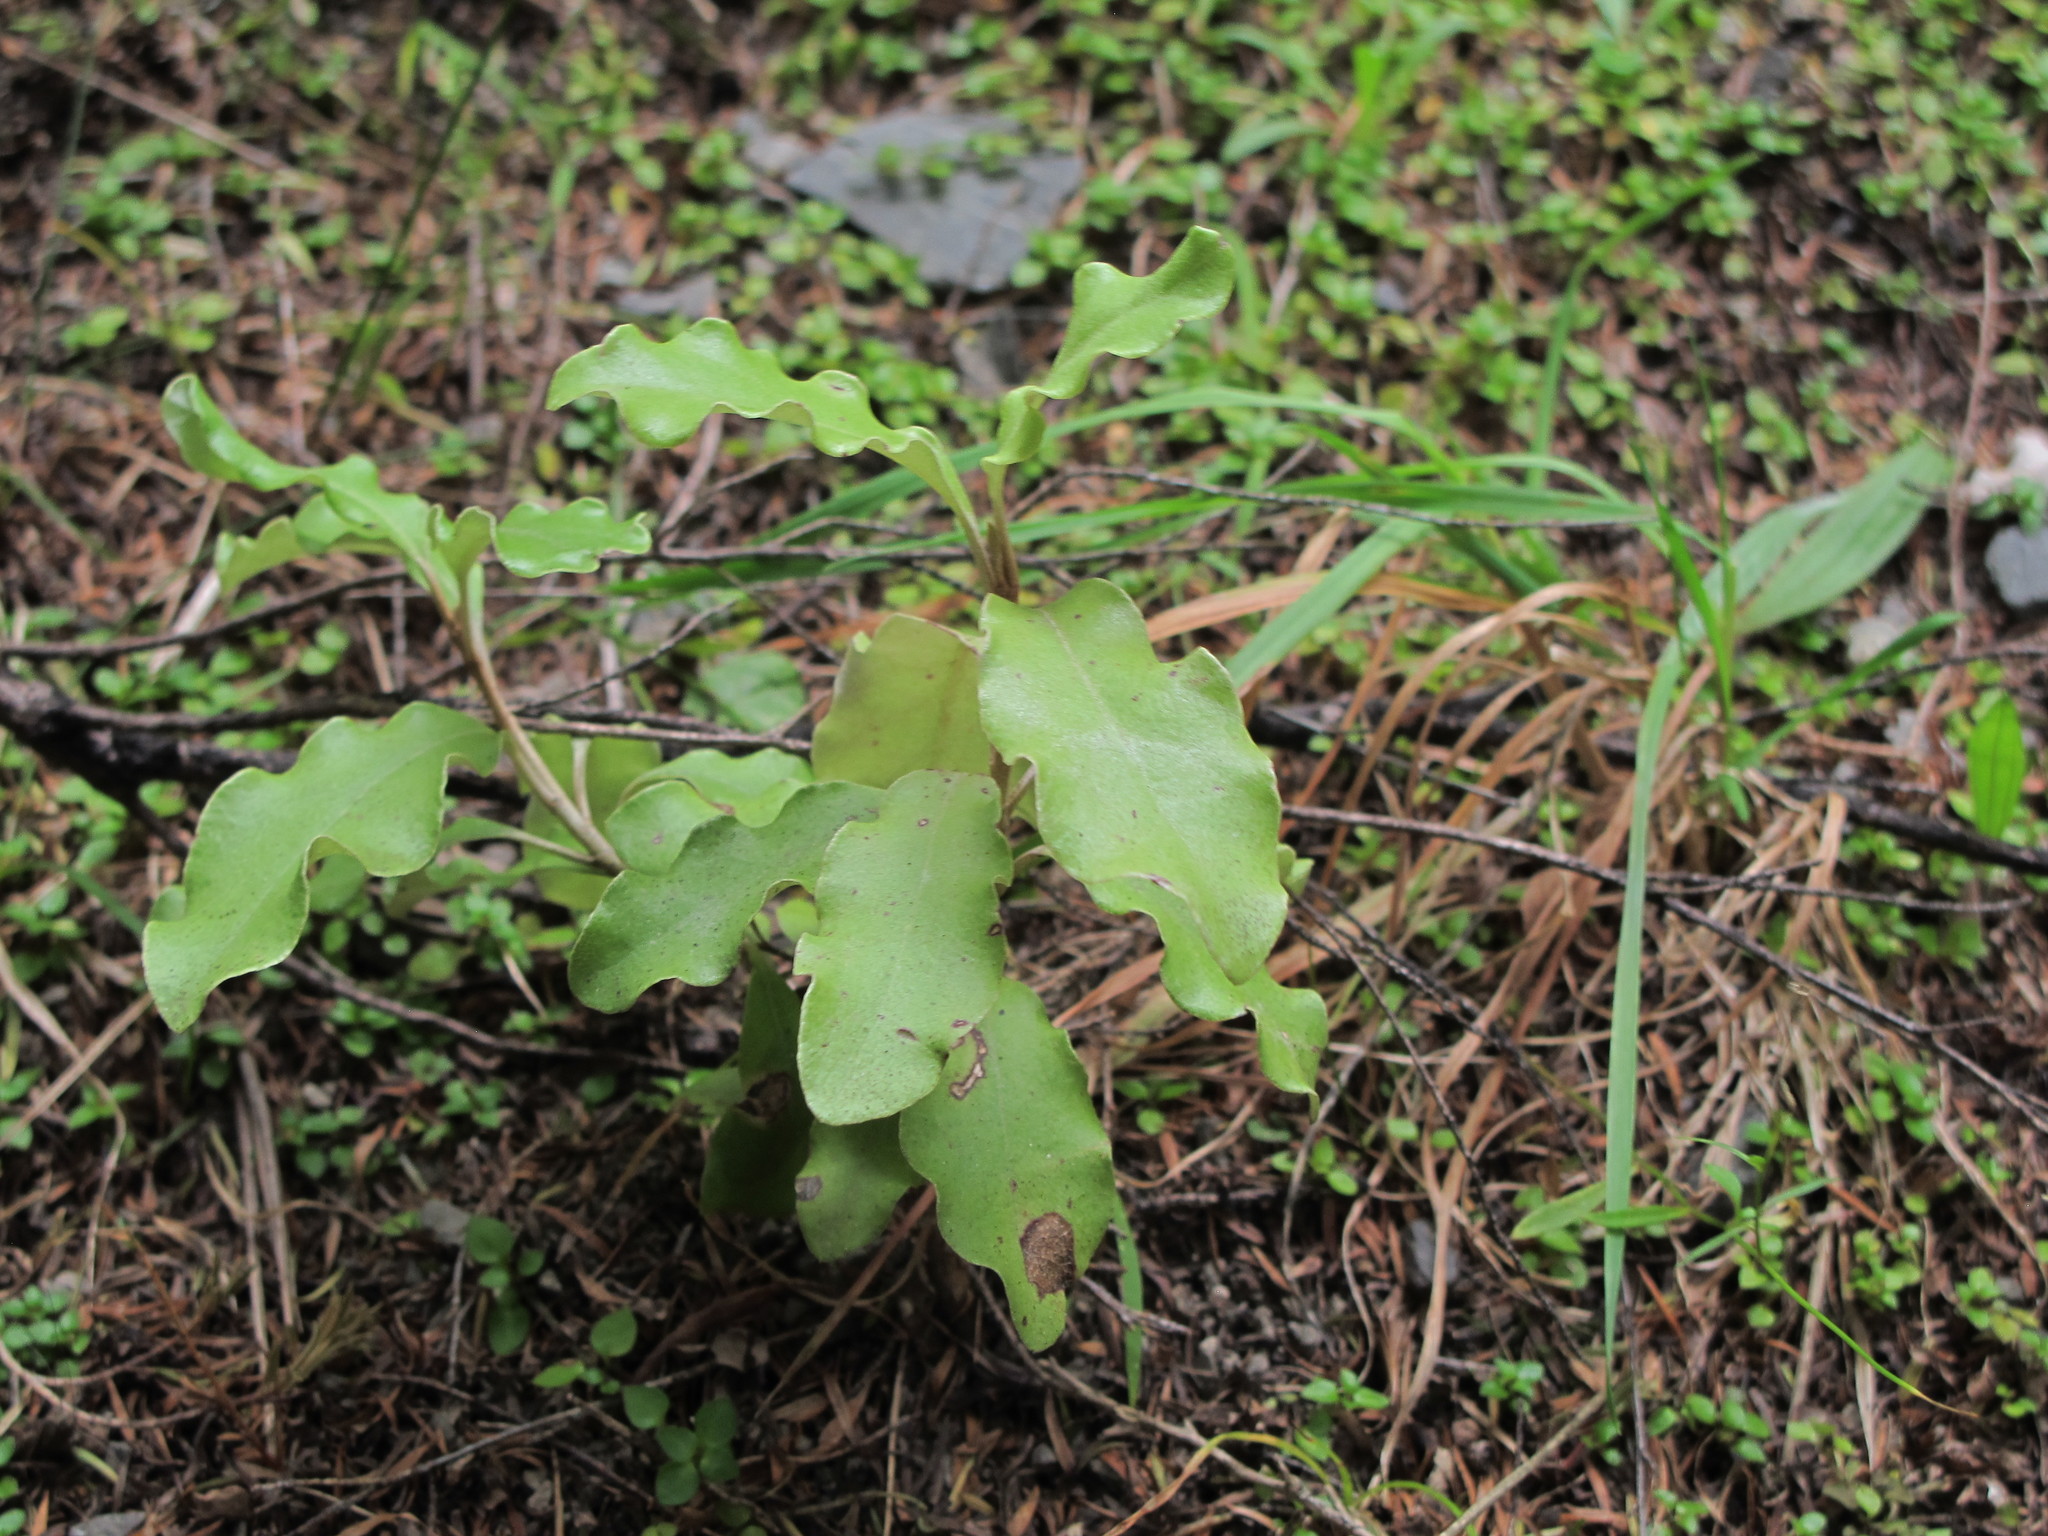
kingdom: Plantae
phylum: Tracheophyta
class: Magnoliopsida
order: Asterales
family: Asteraceae
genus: Olearia
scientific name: Olearia paniculata
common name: Akiraho
